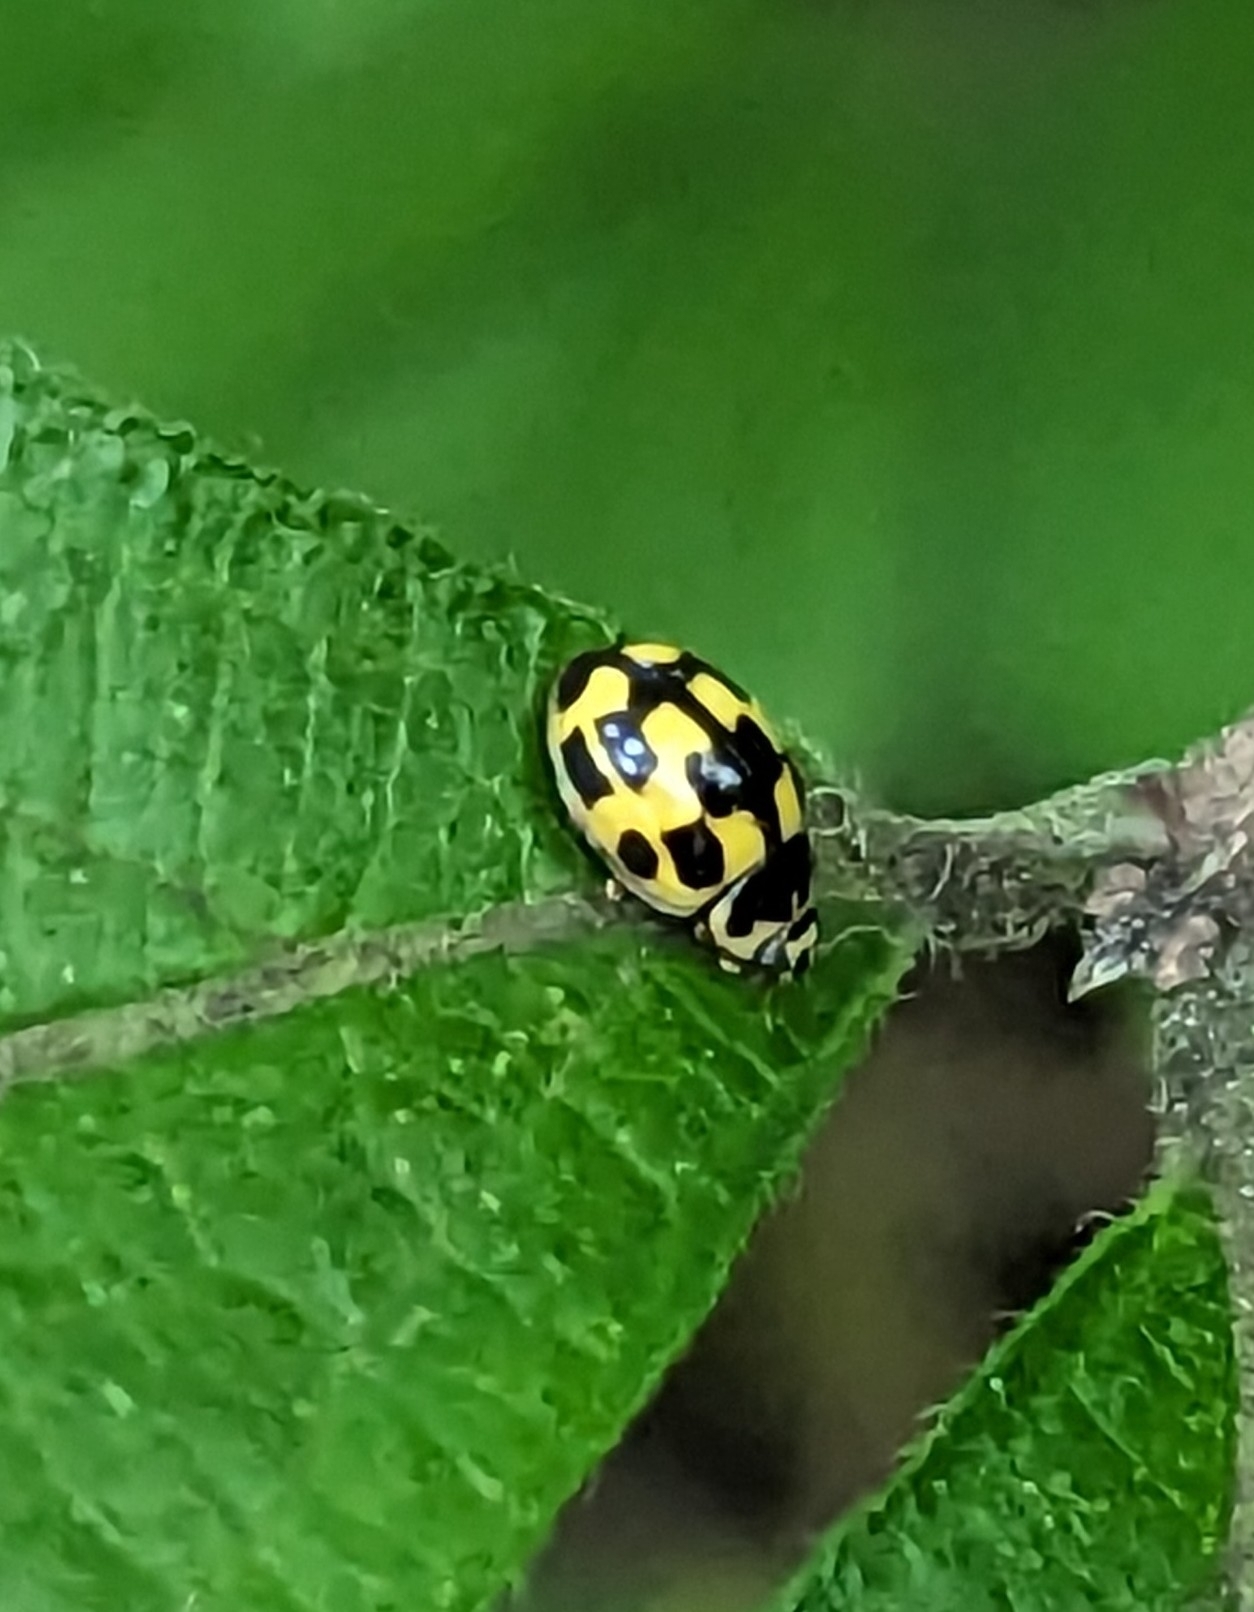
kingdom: Animalia
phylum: Arthropoda
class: Insecta
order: Coleoptera
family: Coccinellidae
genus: Propylaea
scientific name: Propylaea quatuordecimpunctata
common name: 14-spotted ladybird beetle
